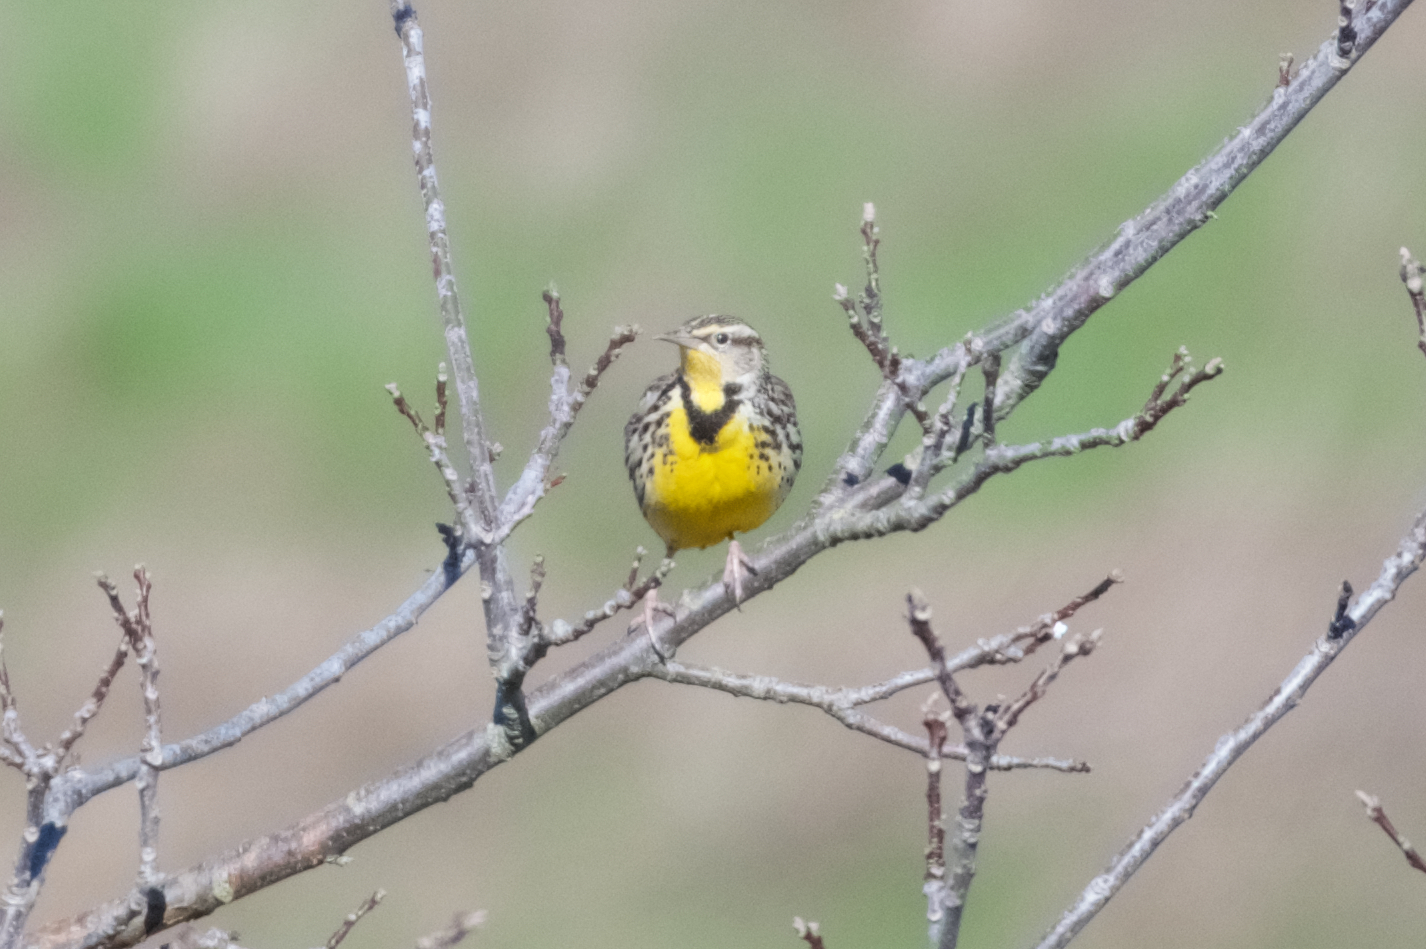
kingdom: Animalia
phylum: Chordata
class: Aves
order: Passeriformes
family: Icteridae
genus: Sturnella
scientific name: Sturnella neglecta
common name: Western meadowlark
